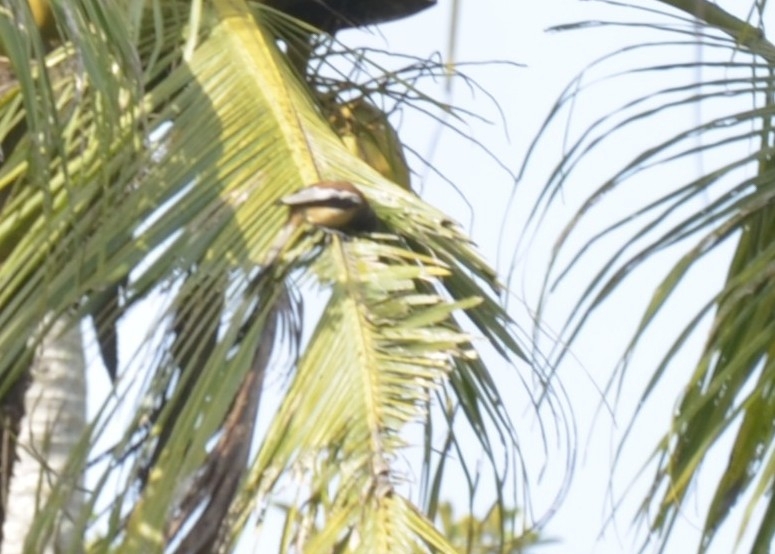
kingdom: Animalia
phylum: Chordata
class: Aves
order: Passeriformes
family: Corvidae
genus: Dendrocitta
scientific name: Dendrocitta vagabunda
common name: Rufous treepie
